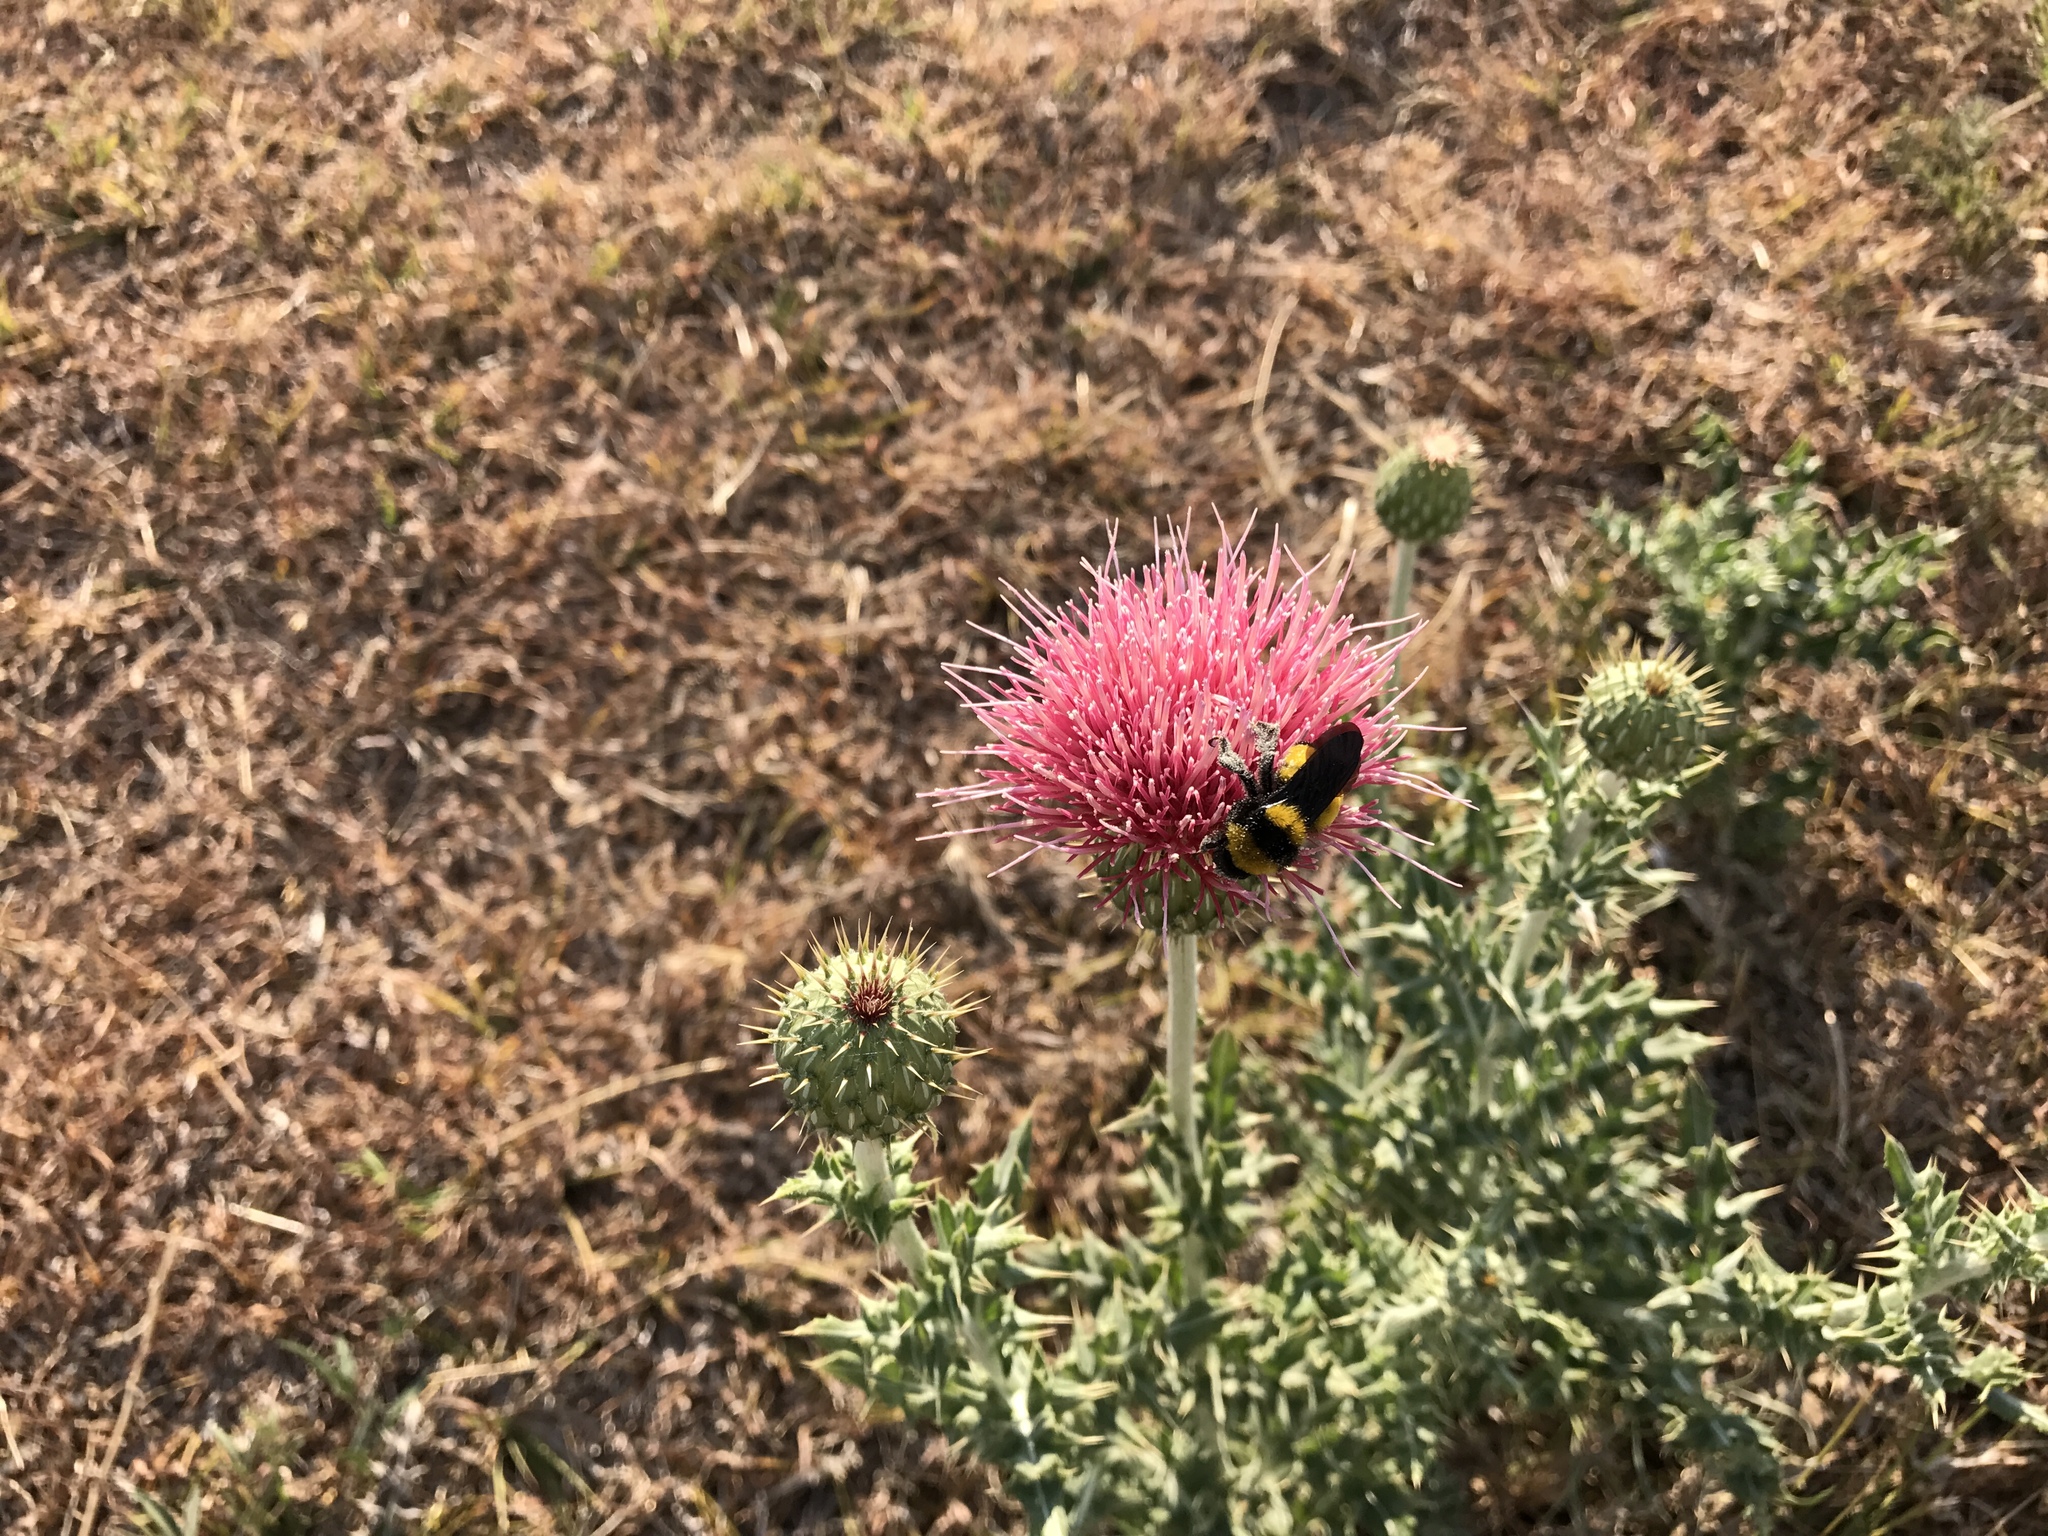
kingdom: Plantae
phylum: Tracheophyta
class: Magnoliopsida
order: Asterales
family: Asteraceae
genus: Cirsium
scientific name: Cirsium ochrocentrum
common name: Yellow-spine thistle
